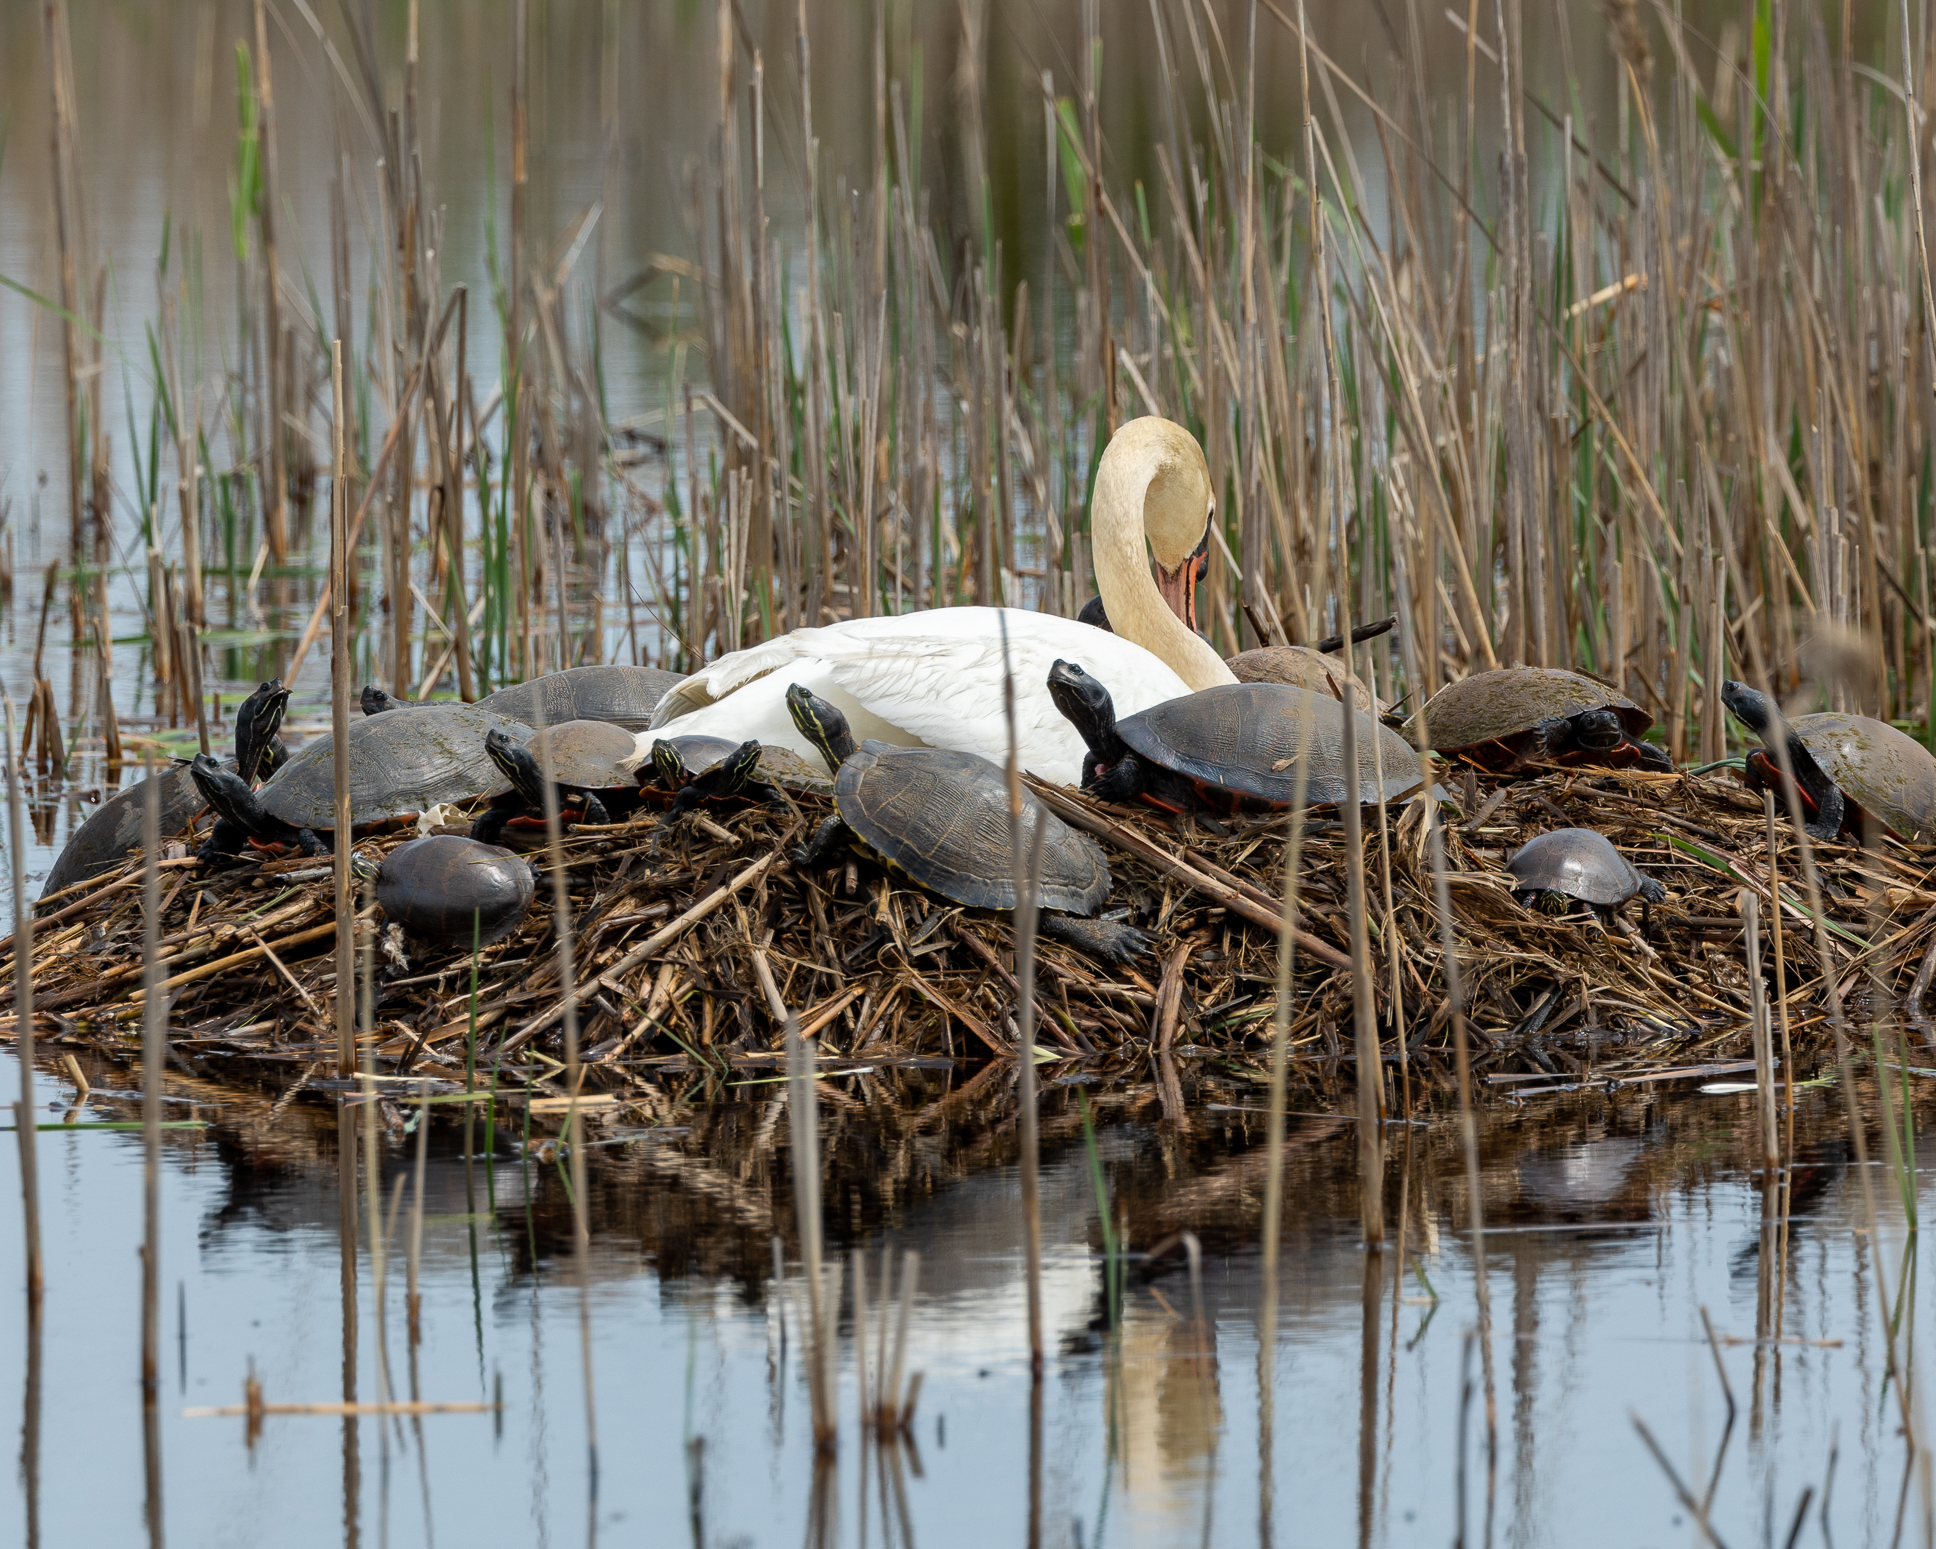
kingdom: Animalia
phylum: Chordata
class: Aves
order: Anseriformes
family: Anatidae
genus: Cygnus
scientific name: Cygnus olor
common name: Mute swan
